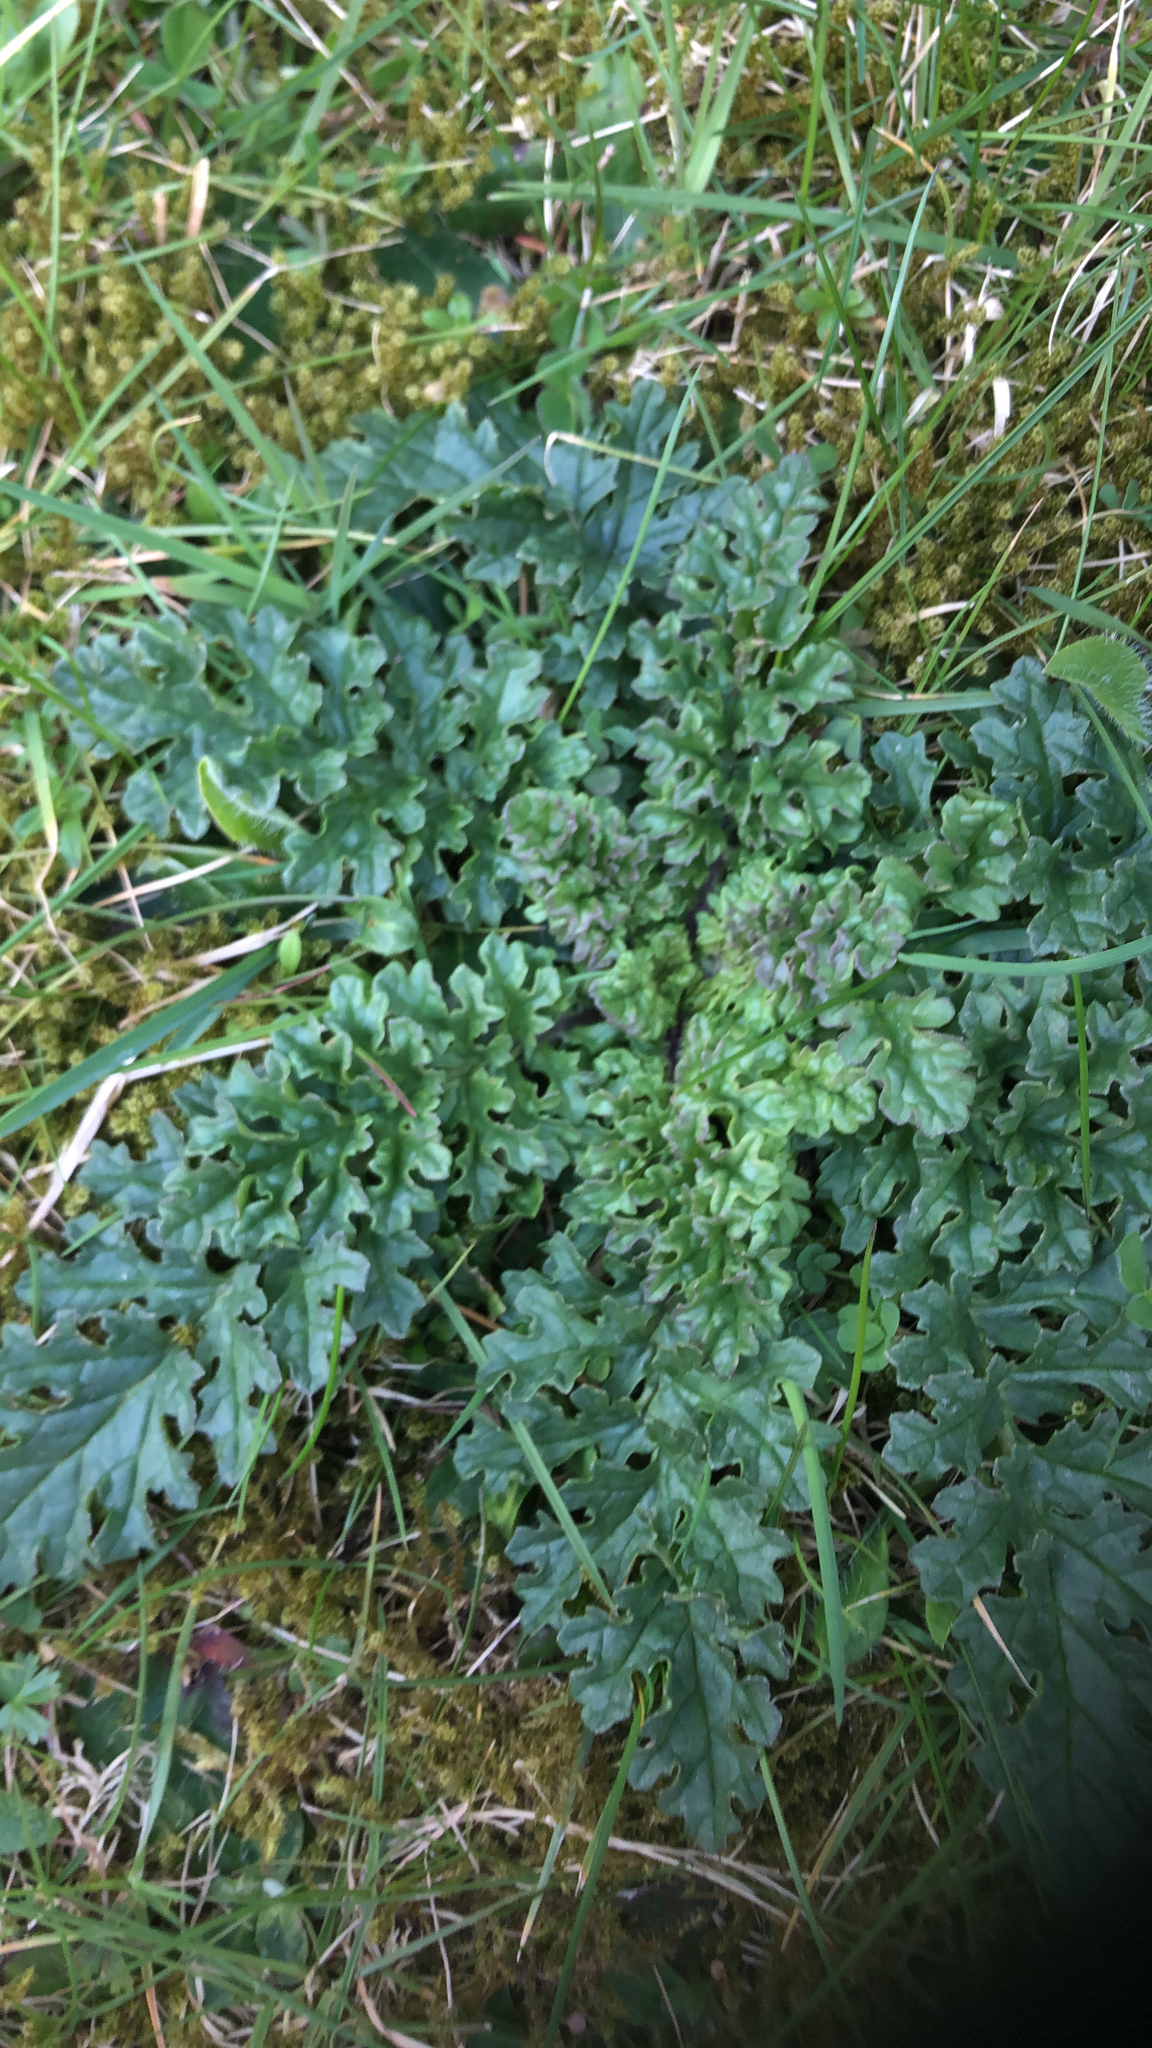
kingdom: Plantae
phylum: Tracheophyta
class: Magnoliopsida
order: Asterales
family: Asteraceae
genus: Jacobaea
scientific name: Jacobaea vulgaris
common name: Stinking willie
